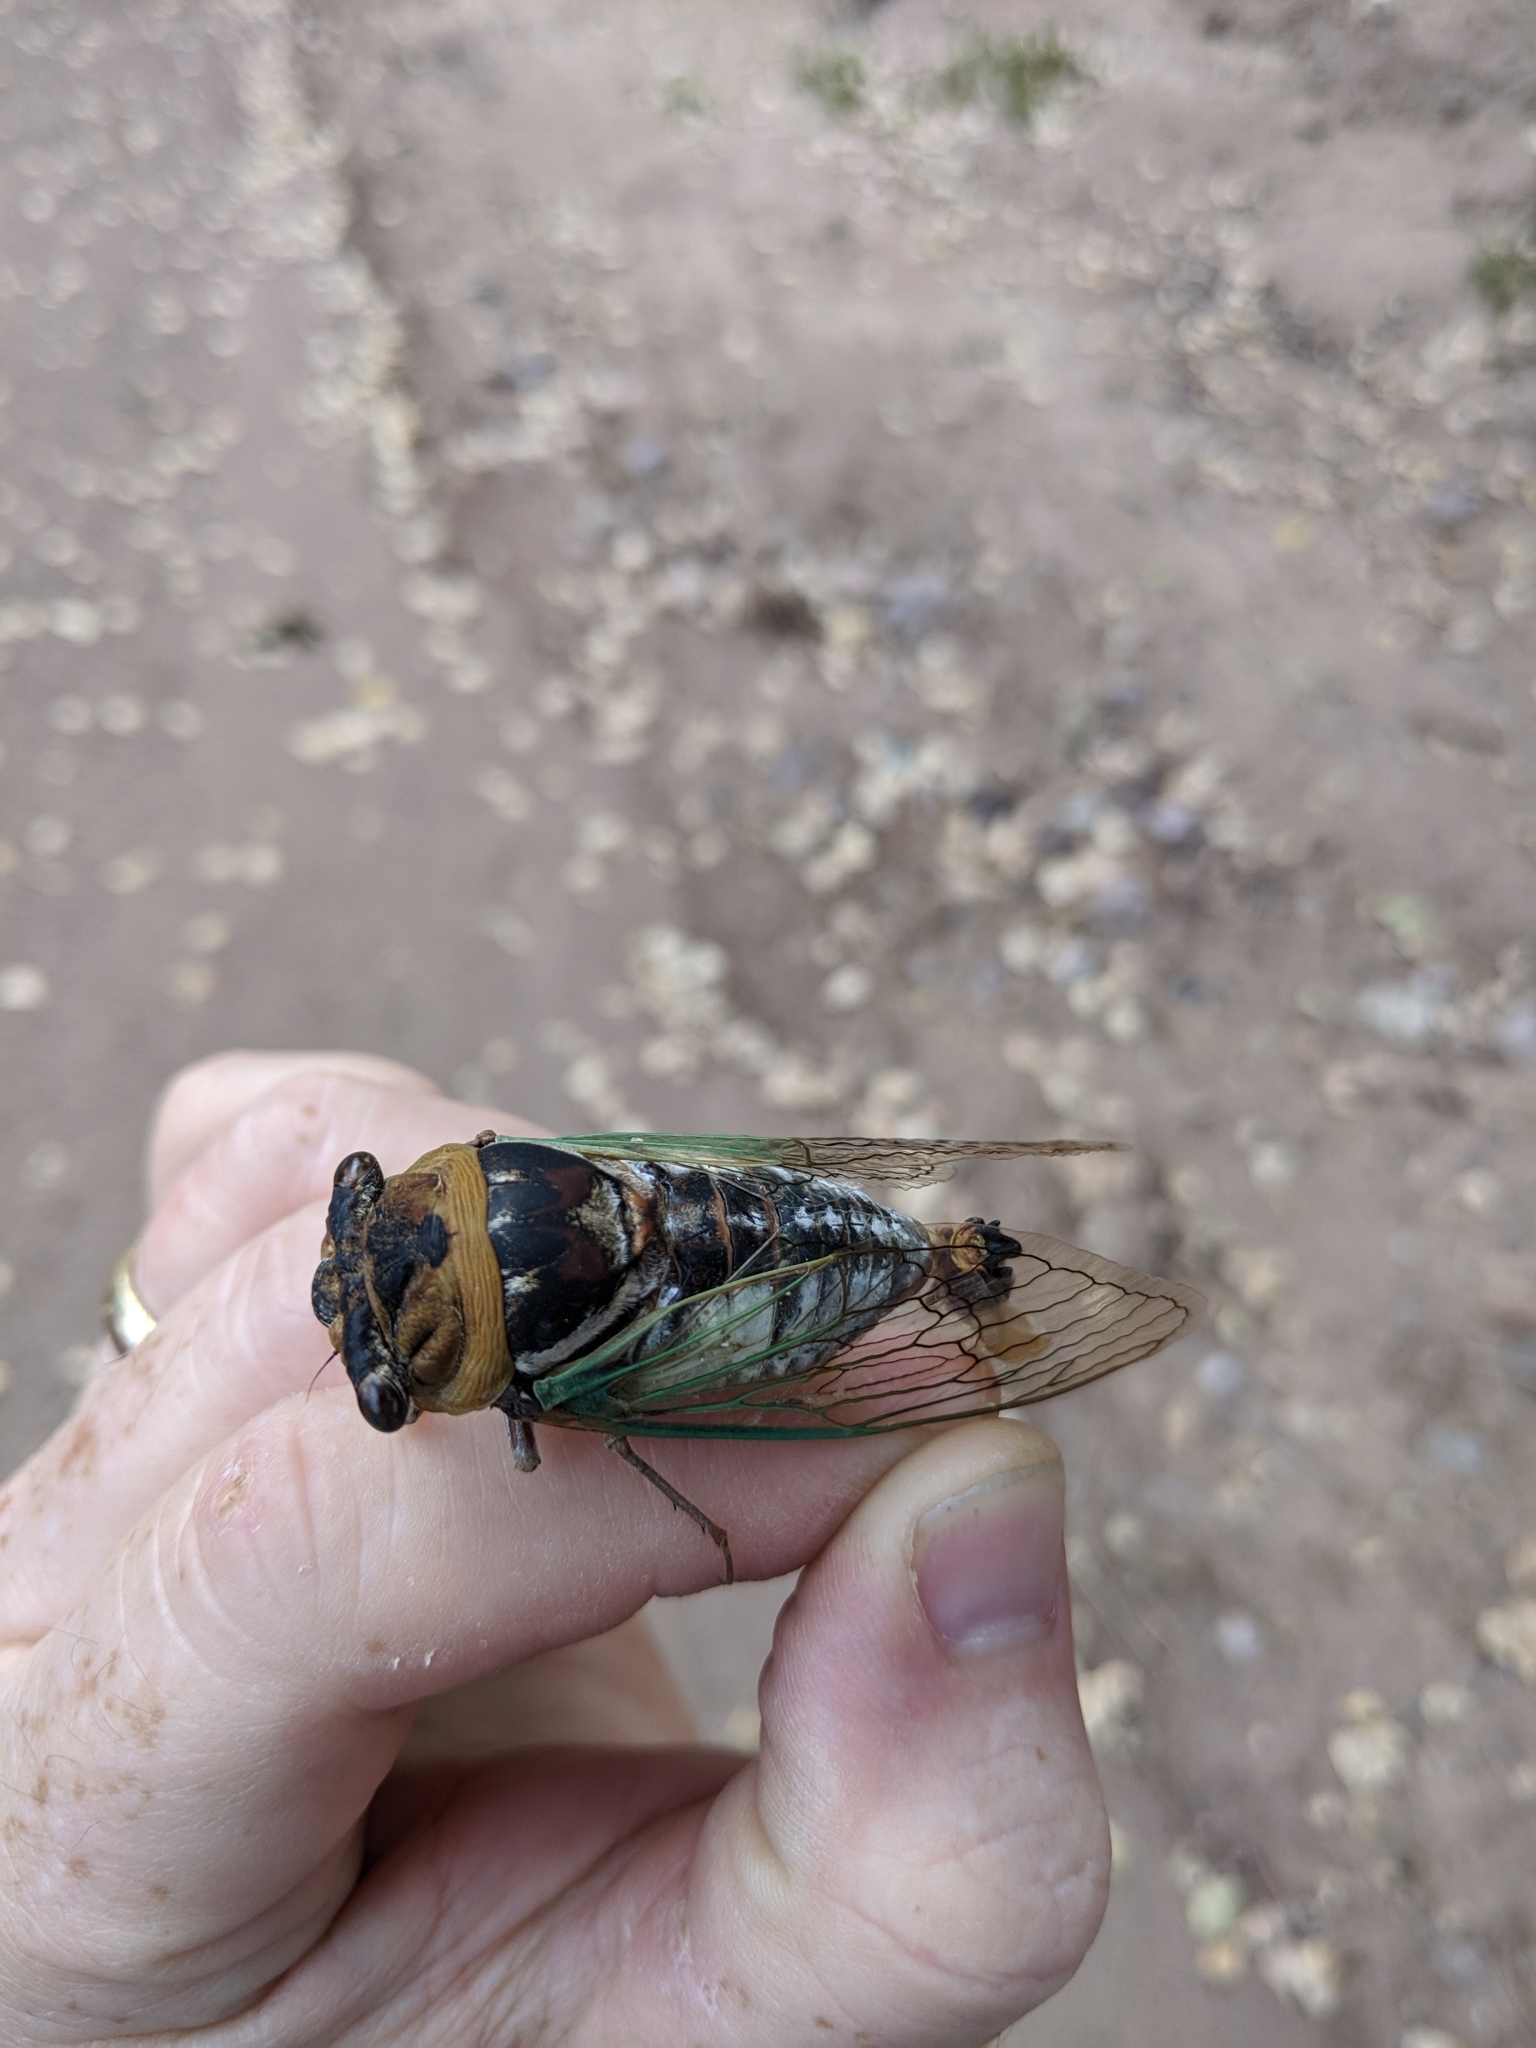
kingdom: Animalia
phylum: Arthropoda
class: Insecta
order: Hemiptera
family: Cicadidae
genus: Megatibicen
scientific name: Megatibicen cultriformis
